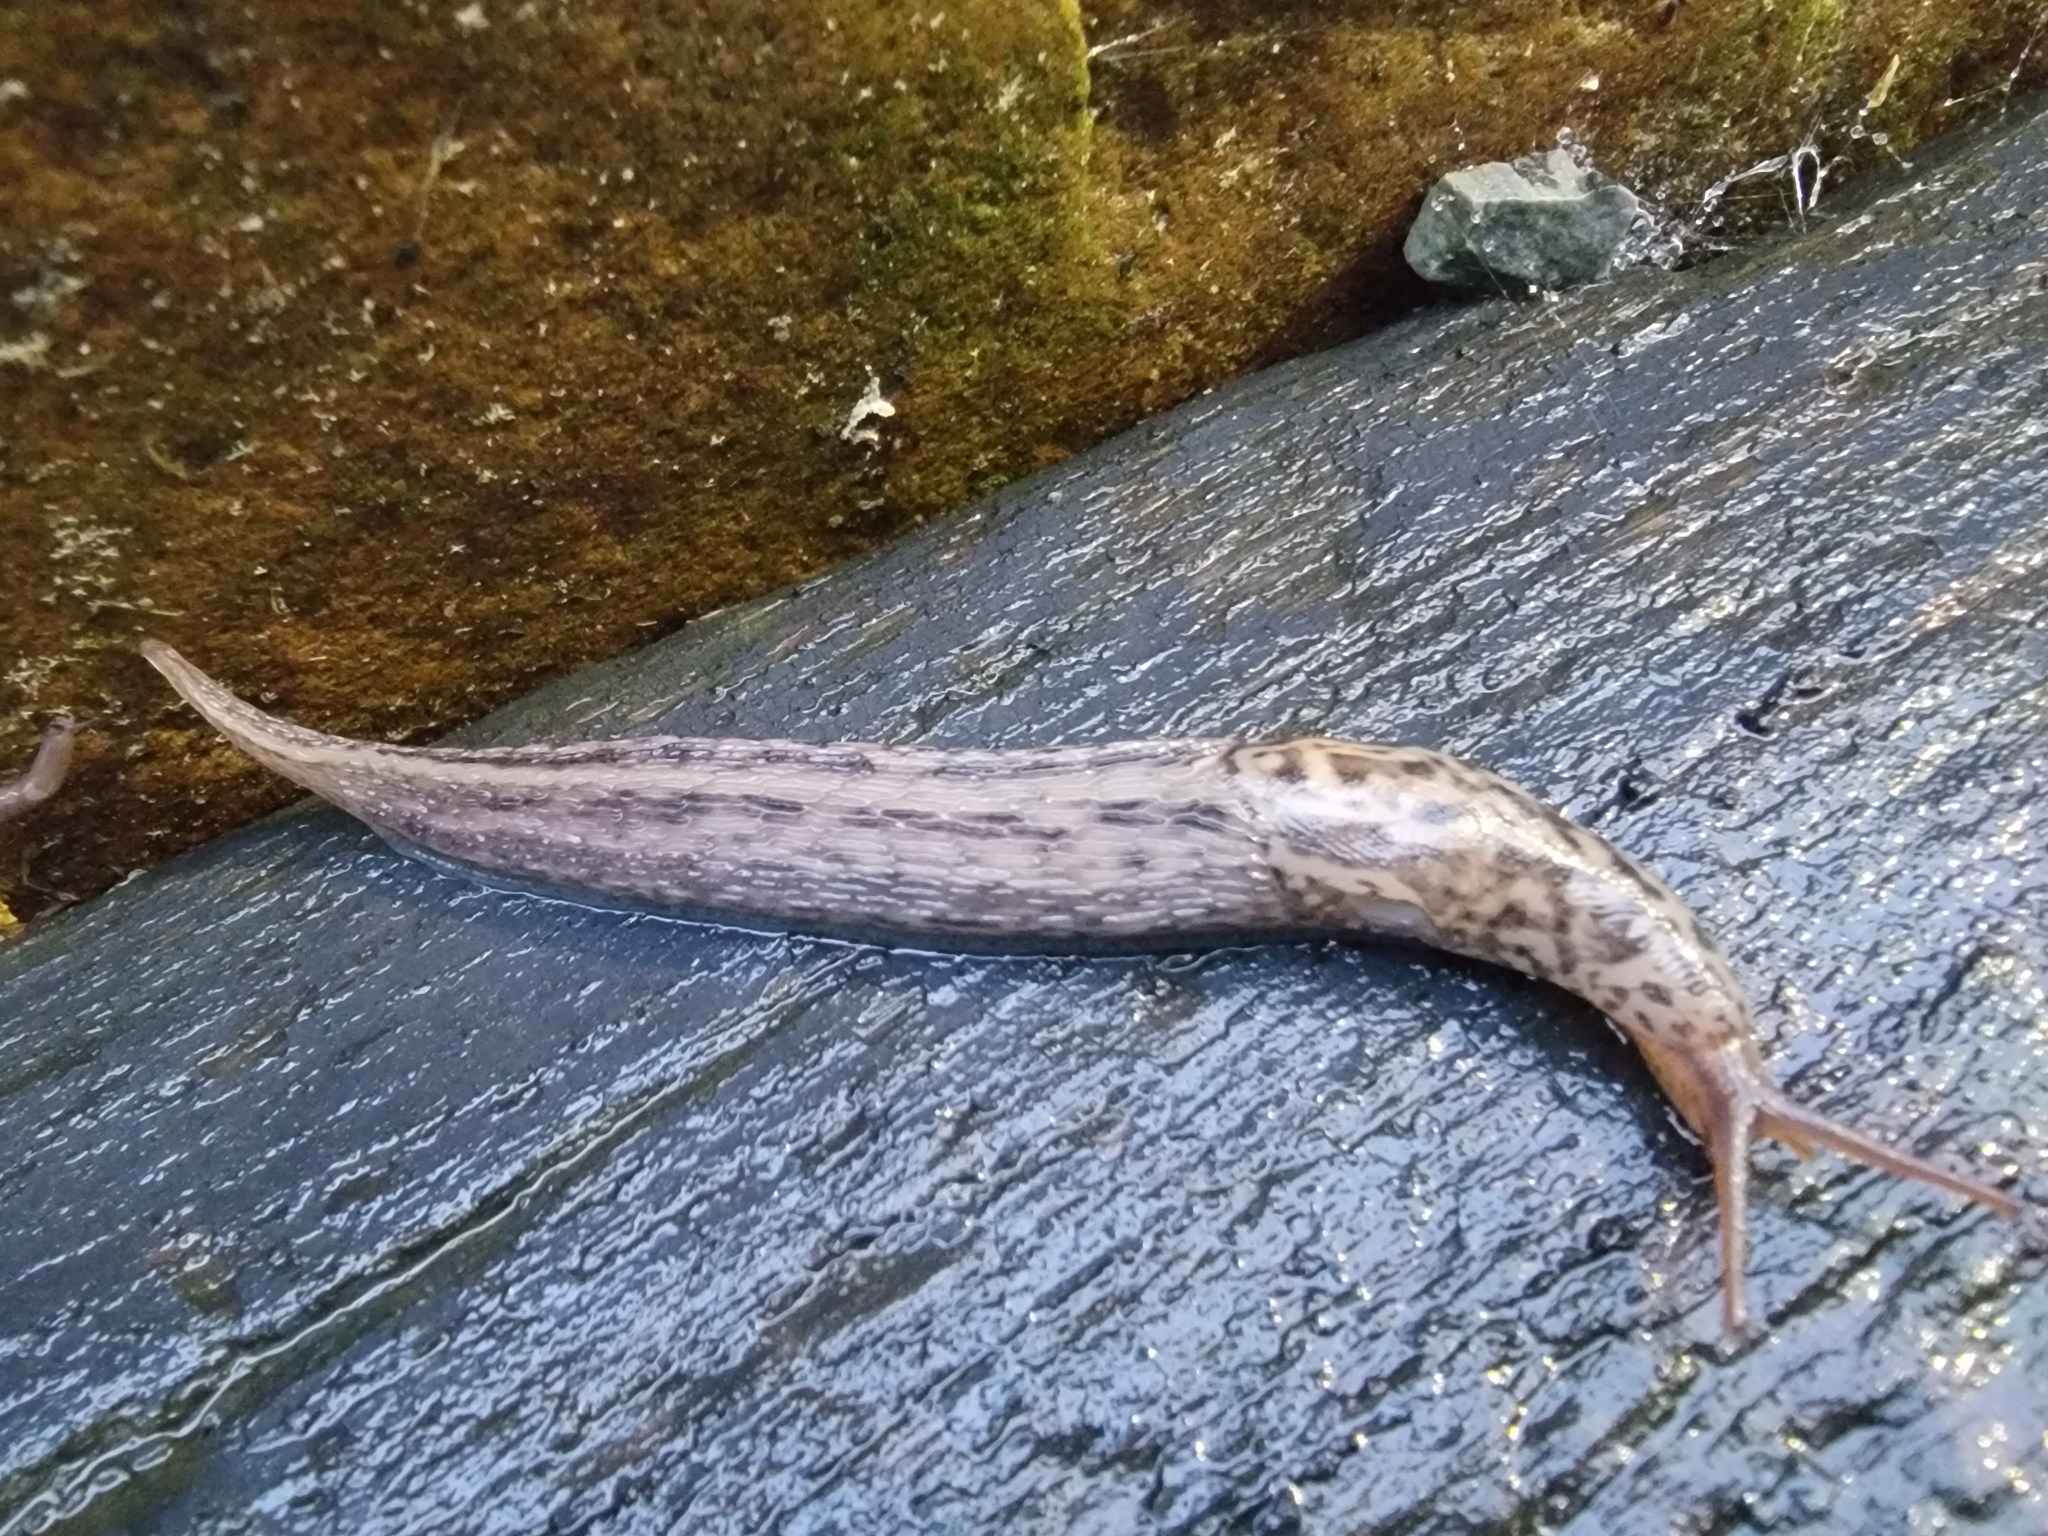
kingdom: Animalia
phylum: Mollusca
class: Gastropoda
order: Stylommatophora
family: Limacidae
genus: Limax
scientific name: Limax maximus
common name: Great grey slug
